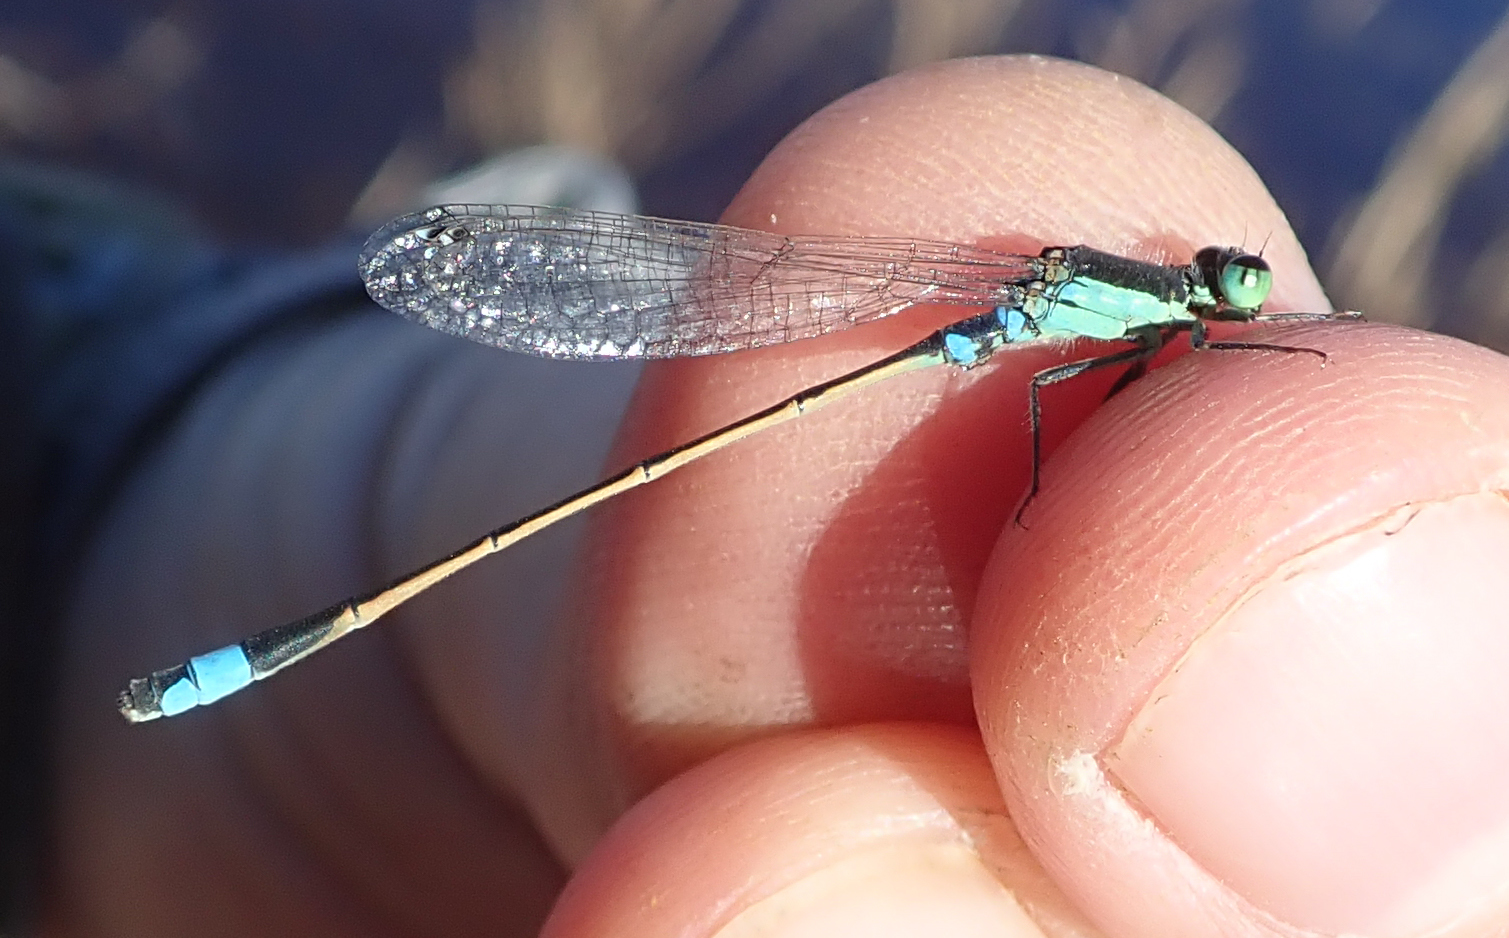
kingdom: Animalia
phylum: Arthropoda
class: Insecta
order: Odonata
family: Coenagrionidae
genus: Ischnura
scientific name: Ischnura senegalensis
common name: Tropical bluetail
